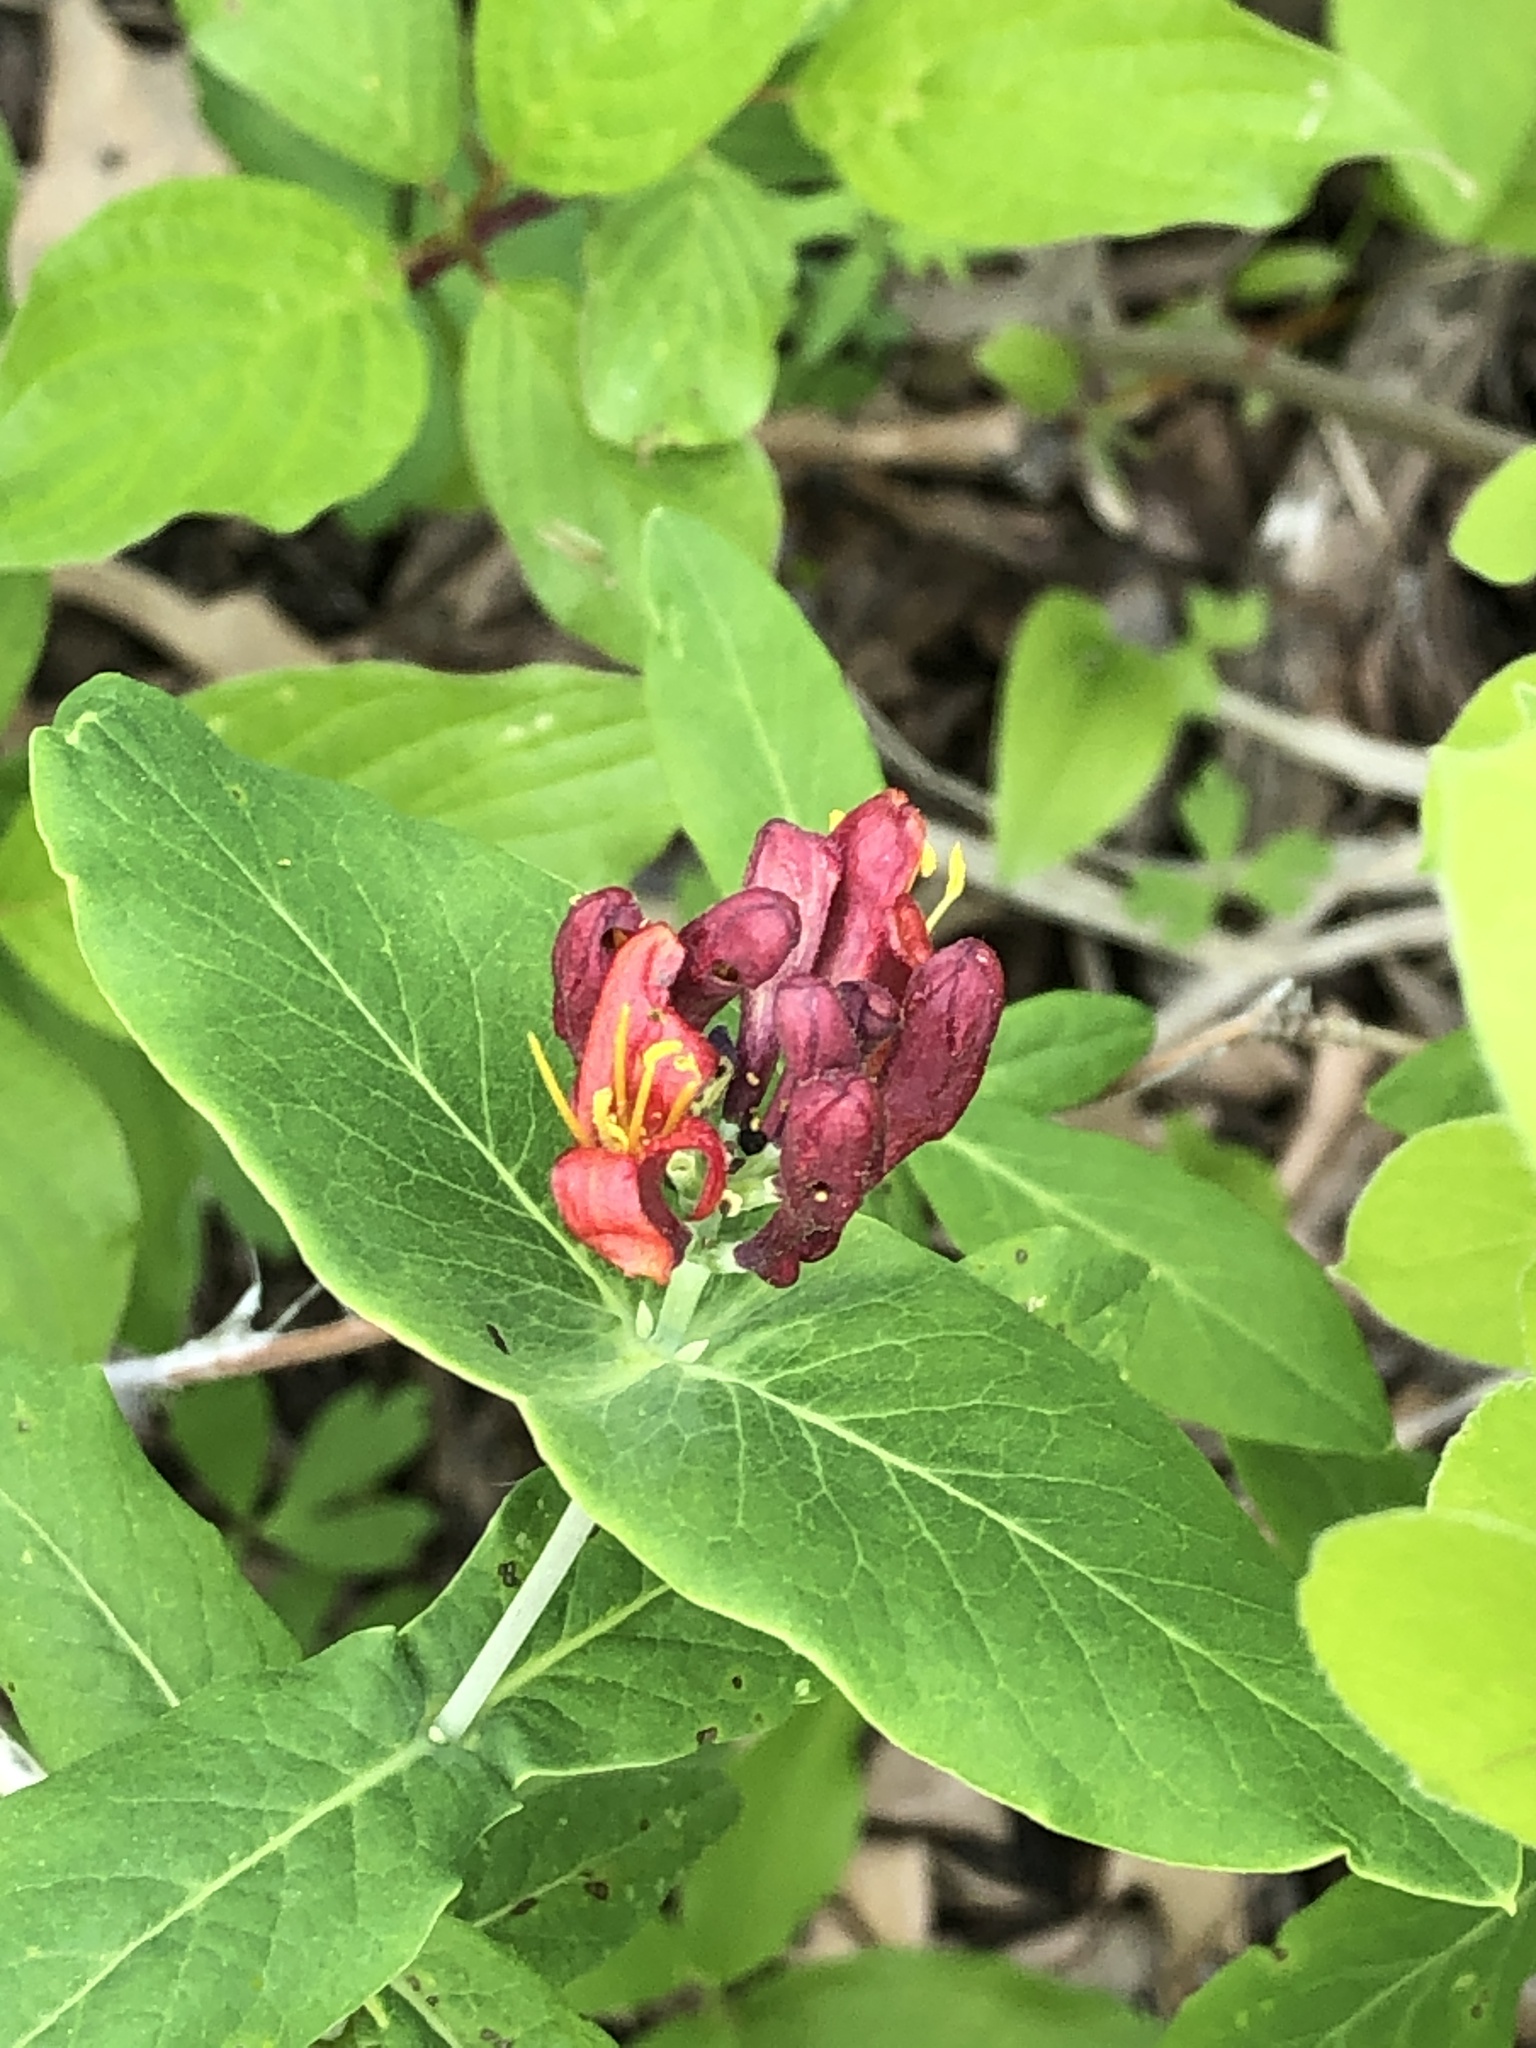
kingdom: Plantae
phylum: Tracheophyta
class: Magnoliopsida
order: Dipsacales
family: Caprifoliaceae
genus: Lonicera
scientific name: Lonicera dioica
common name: Limber honeysuckle
